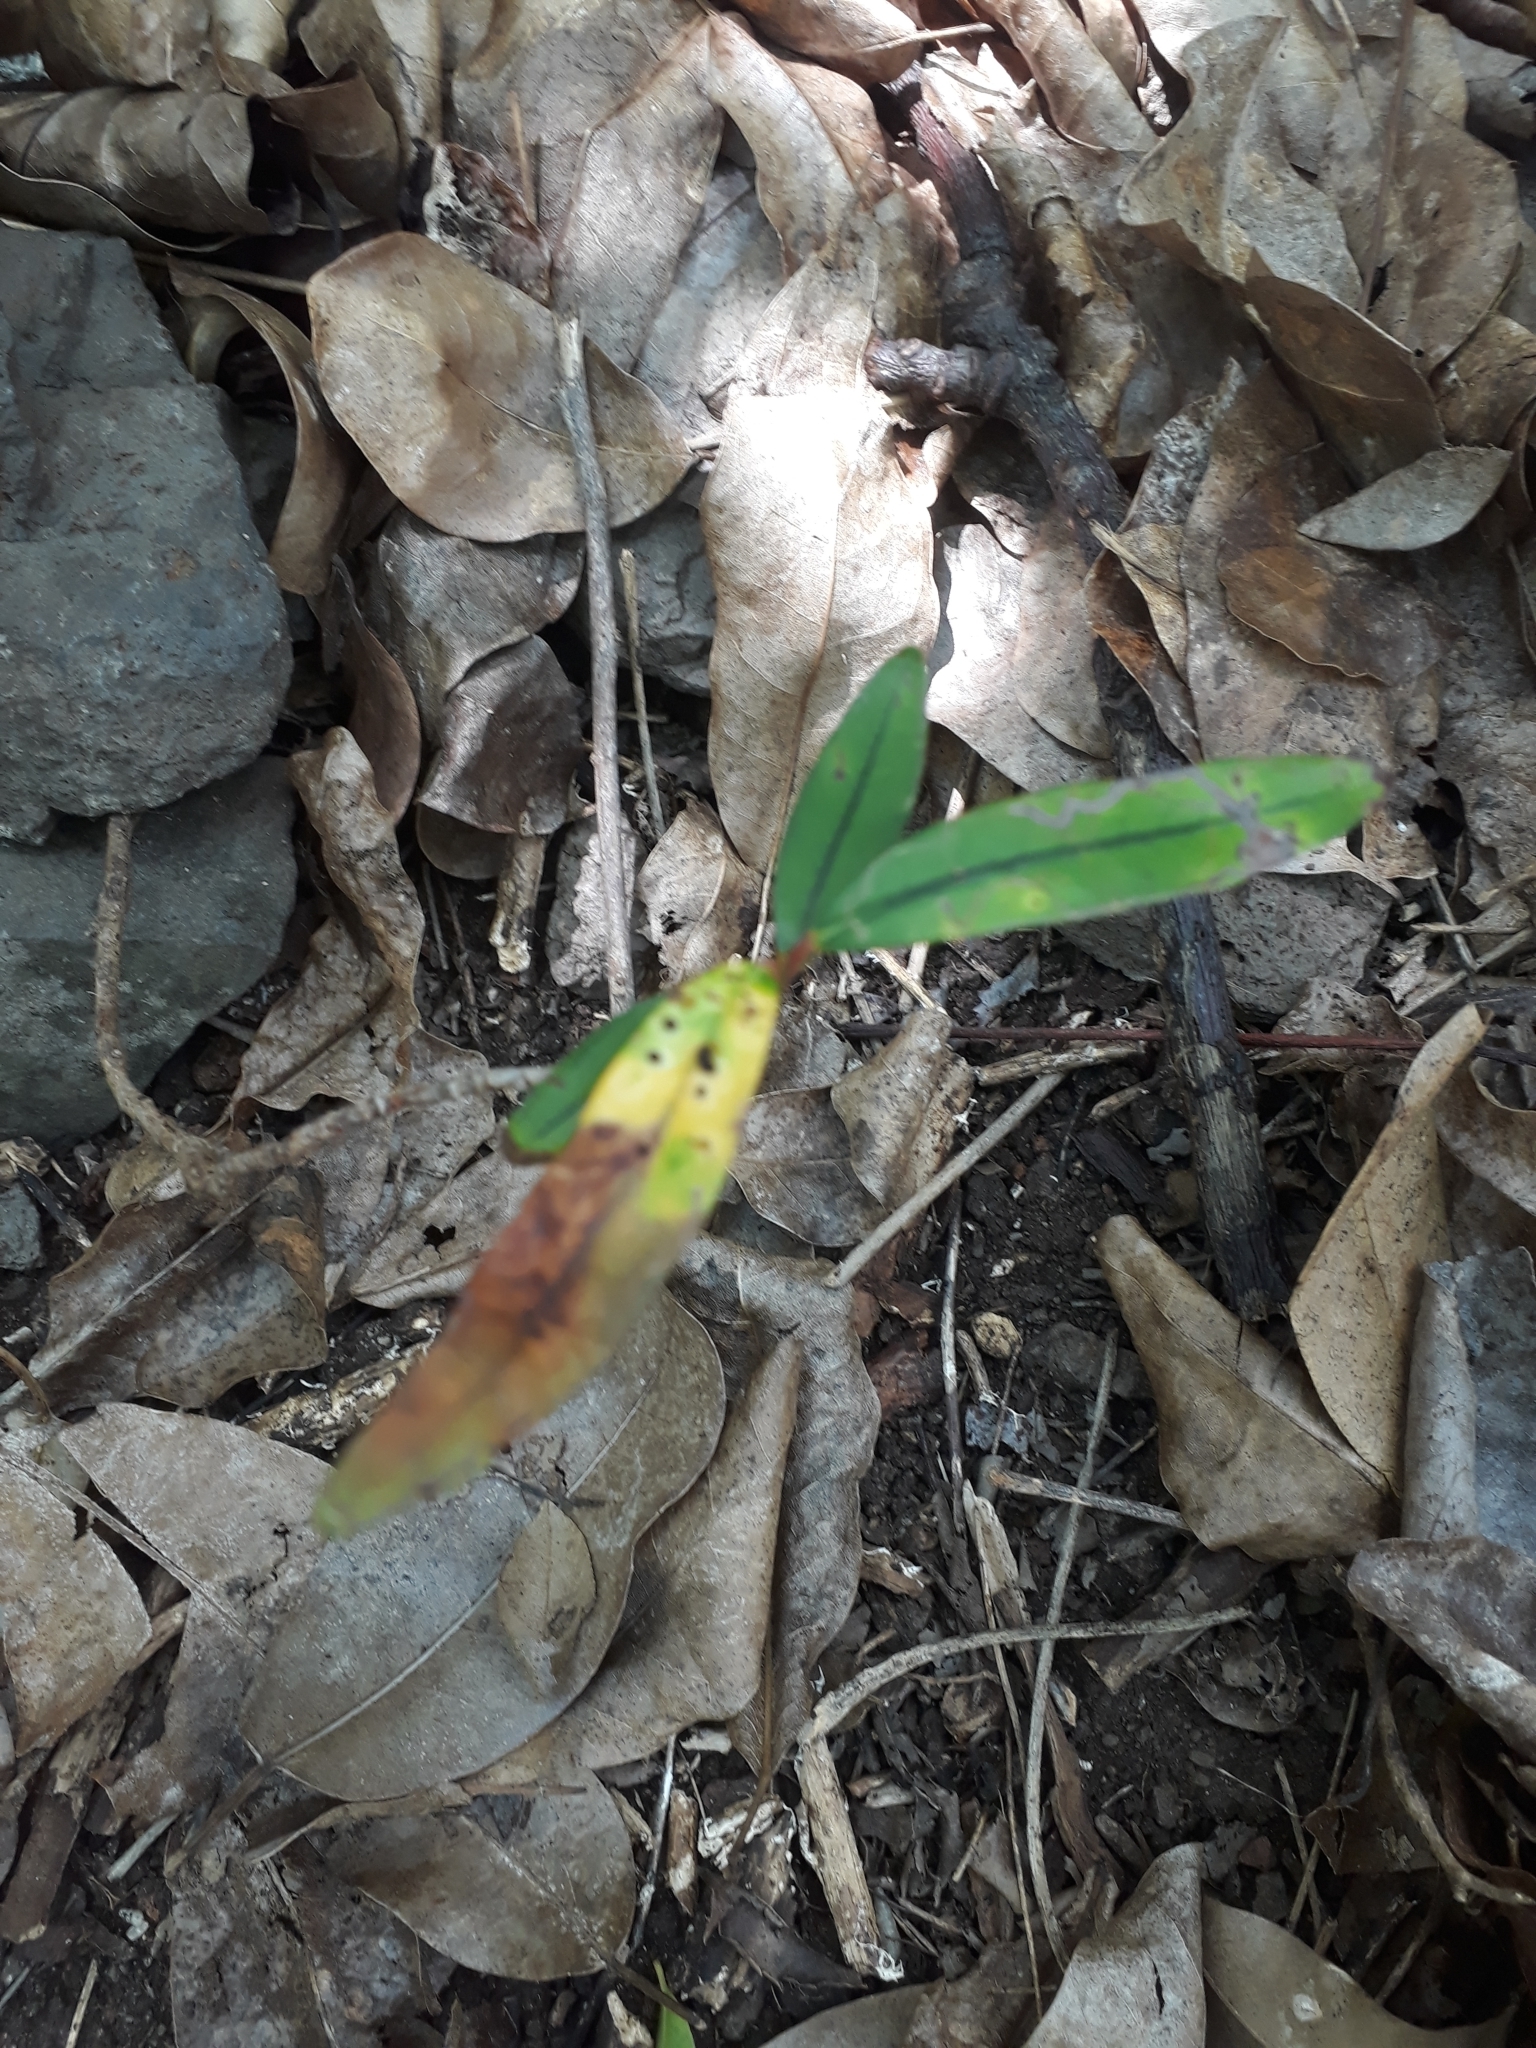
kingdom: Plantae
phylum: Tracheophyta
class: Magnoliopsida
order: Malpighiales
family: Erythroxylaceae
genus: Erythroxylum
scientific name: Erythroxylum sideroxyloides
